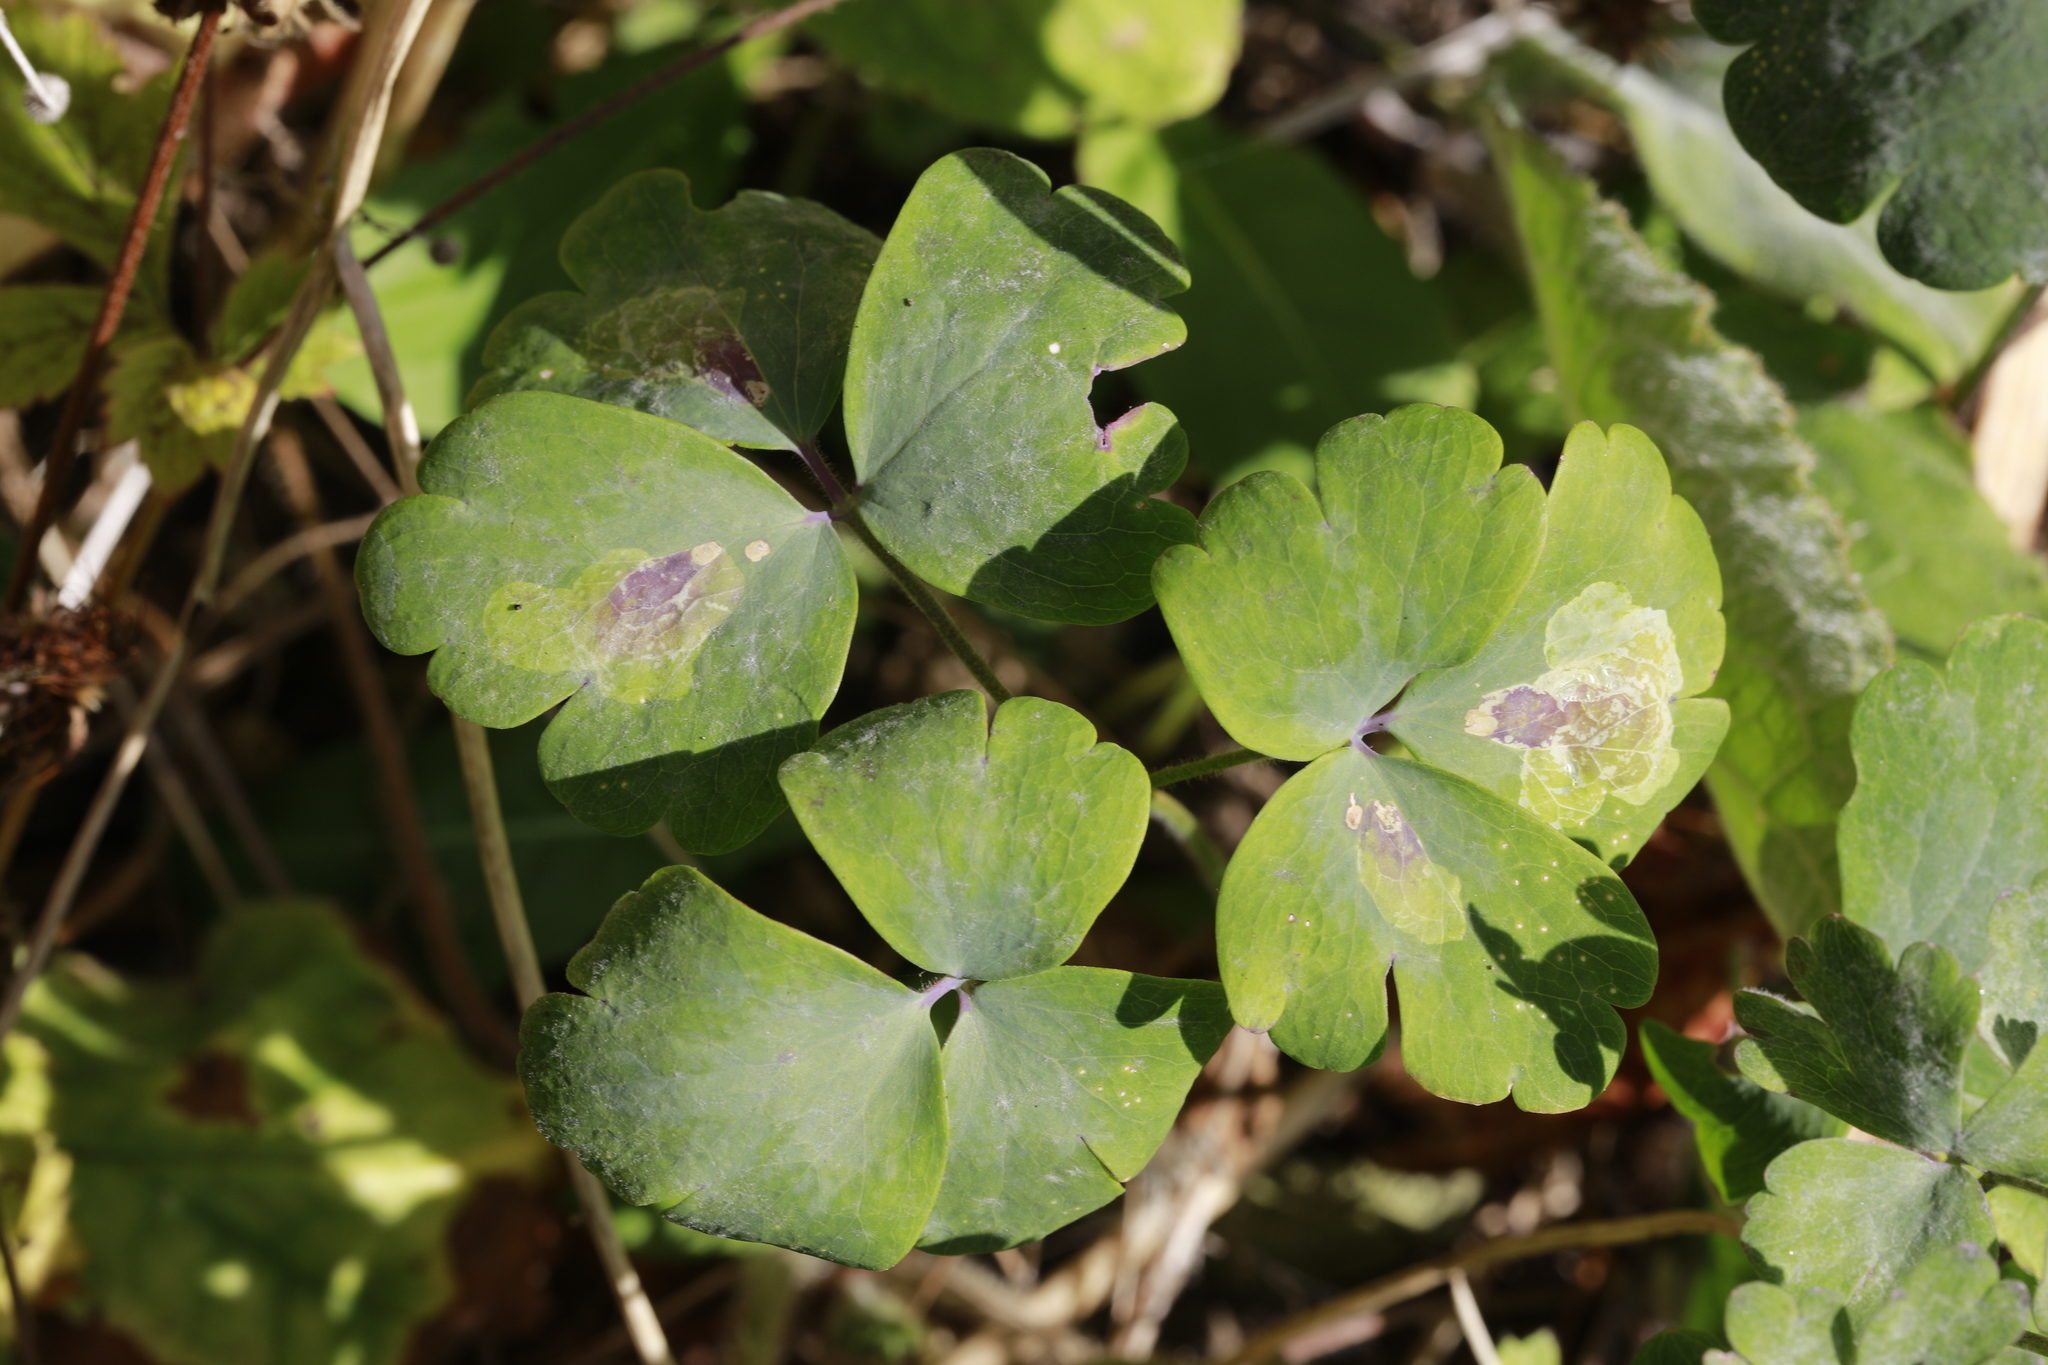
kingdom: Animalia
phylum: Arthropoda
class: Insecta
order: Diptera
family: Agromyzidae
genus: Phytomyza
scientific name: Phytomyza aquilegiae
